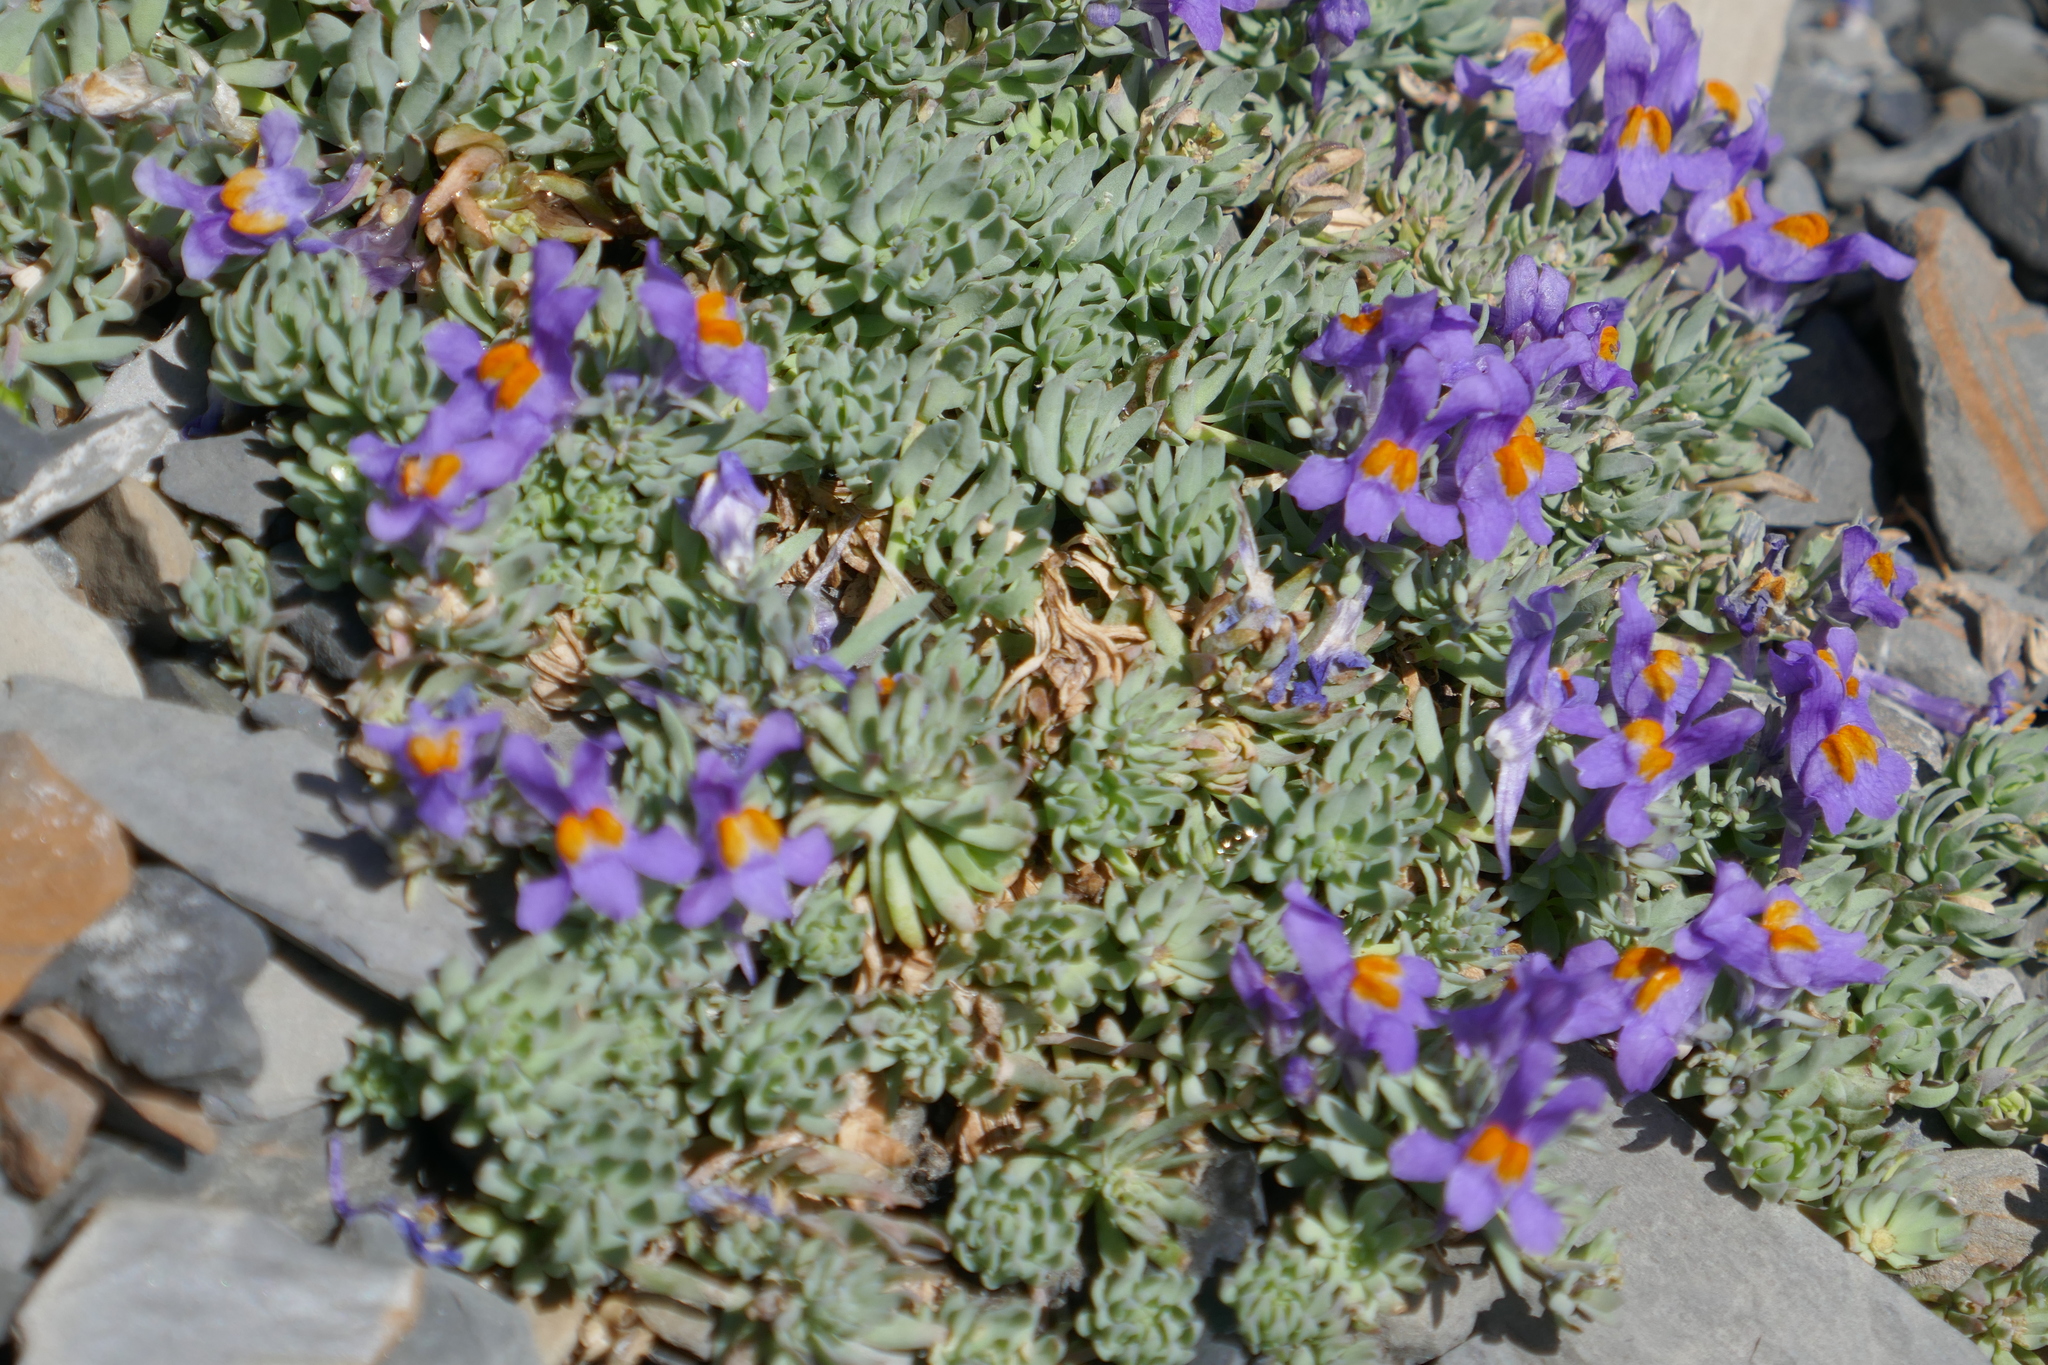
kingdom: Plantae
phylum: Tracheophyta
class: Magnoliopsida
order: Lamiales
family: Plantaginaceae
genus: Linaria
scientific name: Linaria alpina
